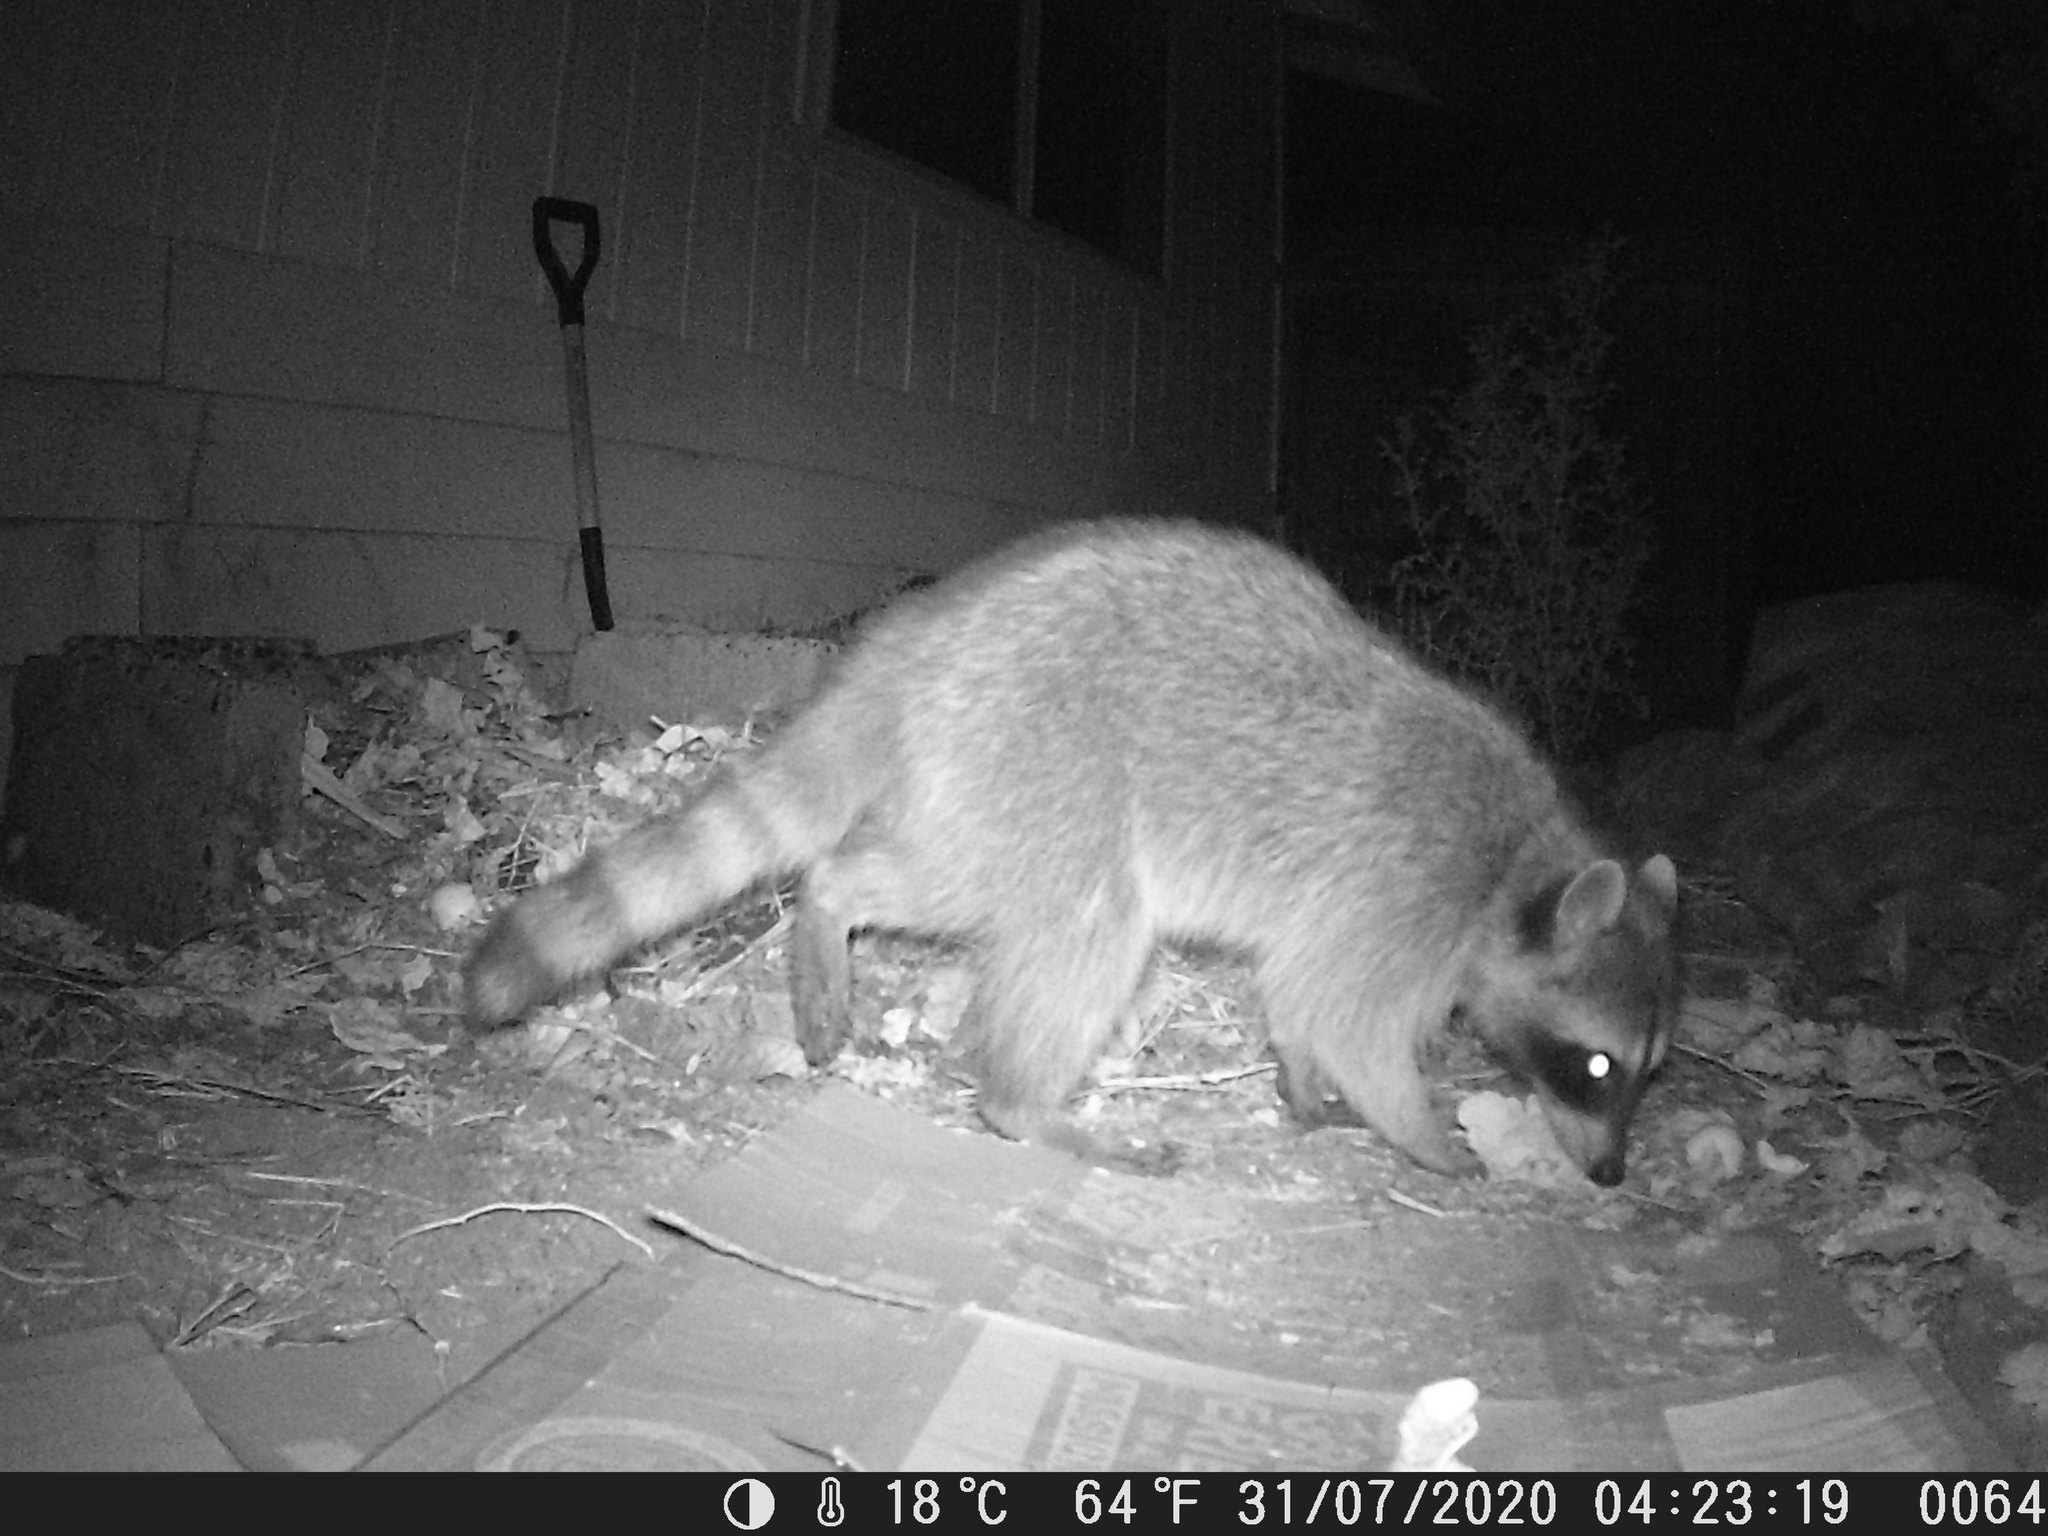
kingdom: Animalia
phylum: Chordata
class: Mammalia
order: Carnivora
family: Procyonidae
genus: Procyon
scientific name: Procyon lotor
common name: Raccoon
